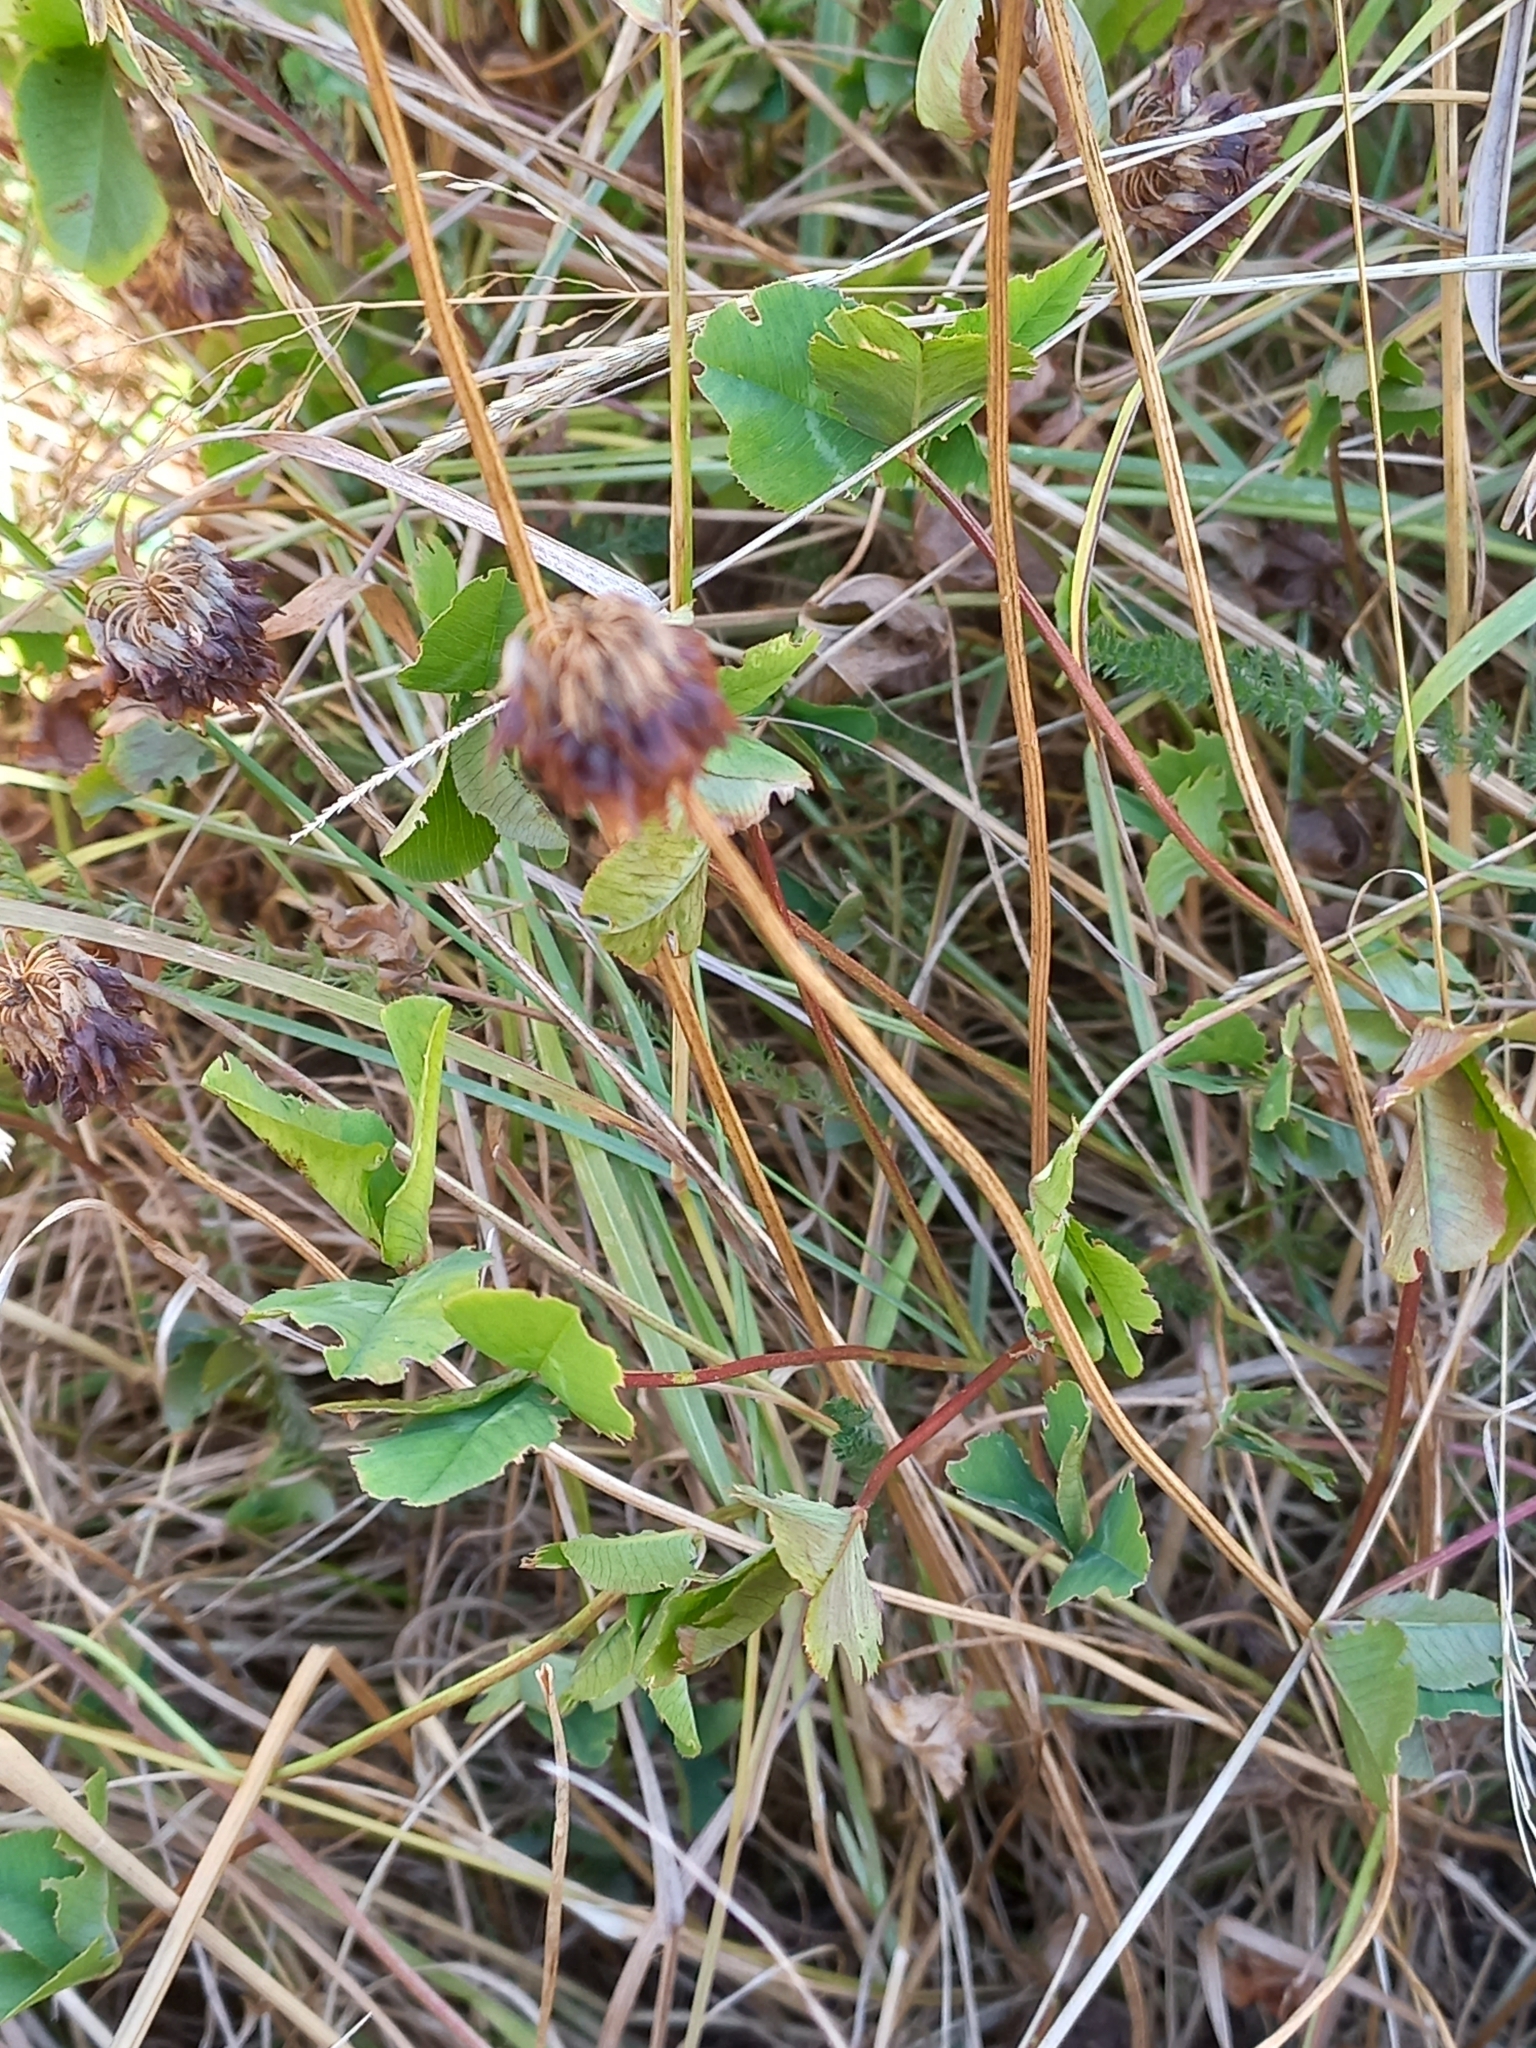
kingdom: Plantae
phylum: Tracheophyta
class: Magnoliopsida
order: Fabales
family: Fabaceae
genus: Trifolium
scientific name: Trifolium repens
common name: White clover
